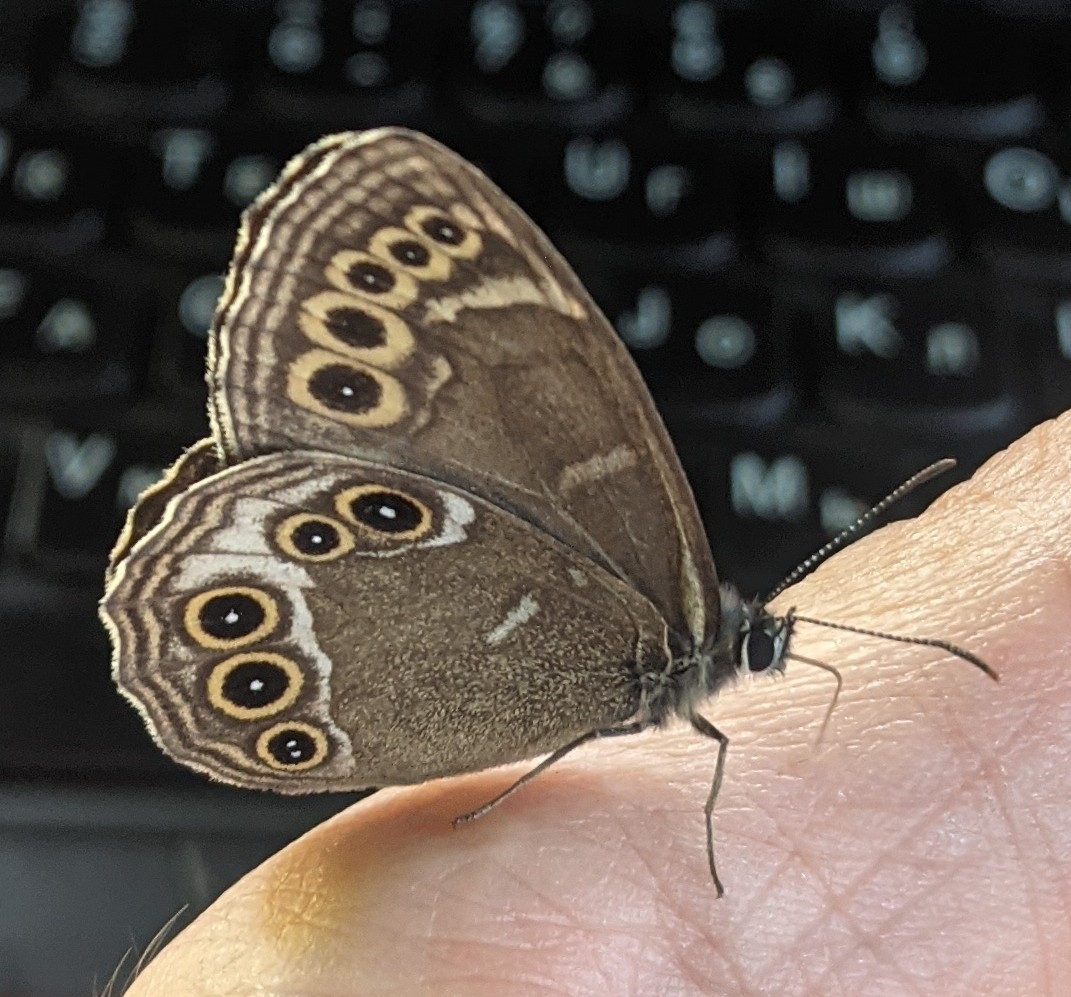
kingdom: Animalia
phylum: Arthropoda
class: Insecta
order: Lepidoptera
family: Nymphalidae
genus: Pararge
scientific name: Pararge Lopinga achine
